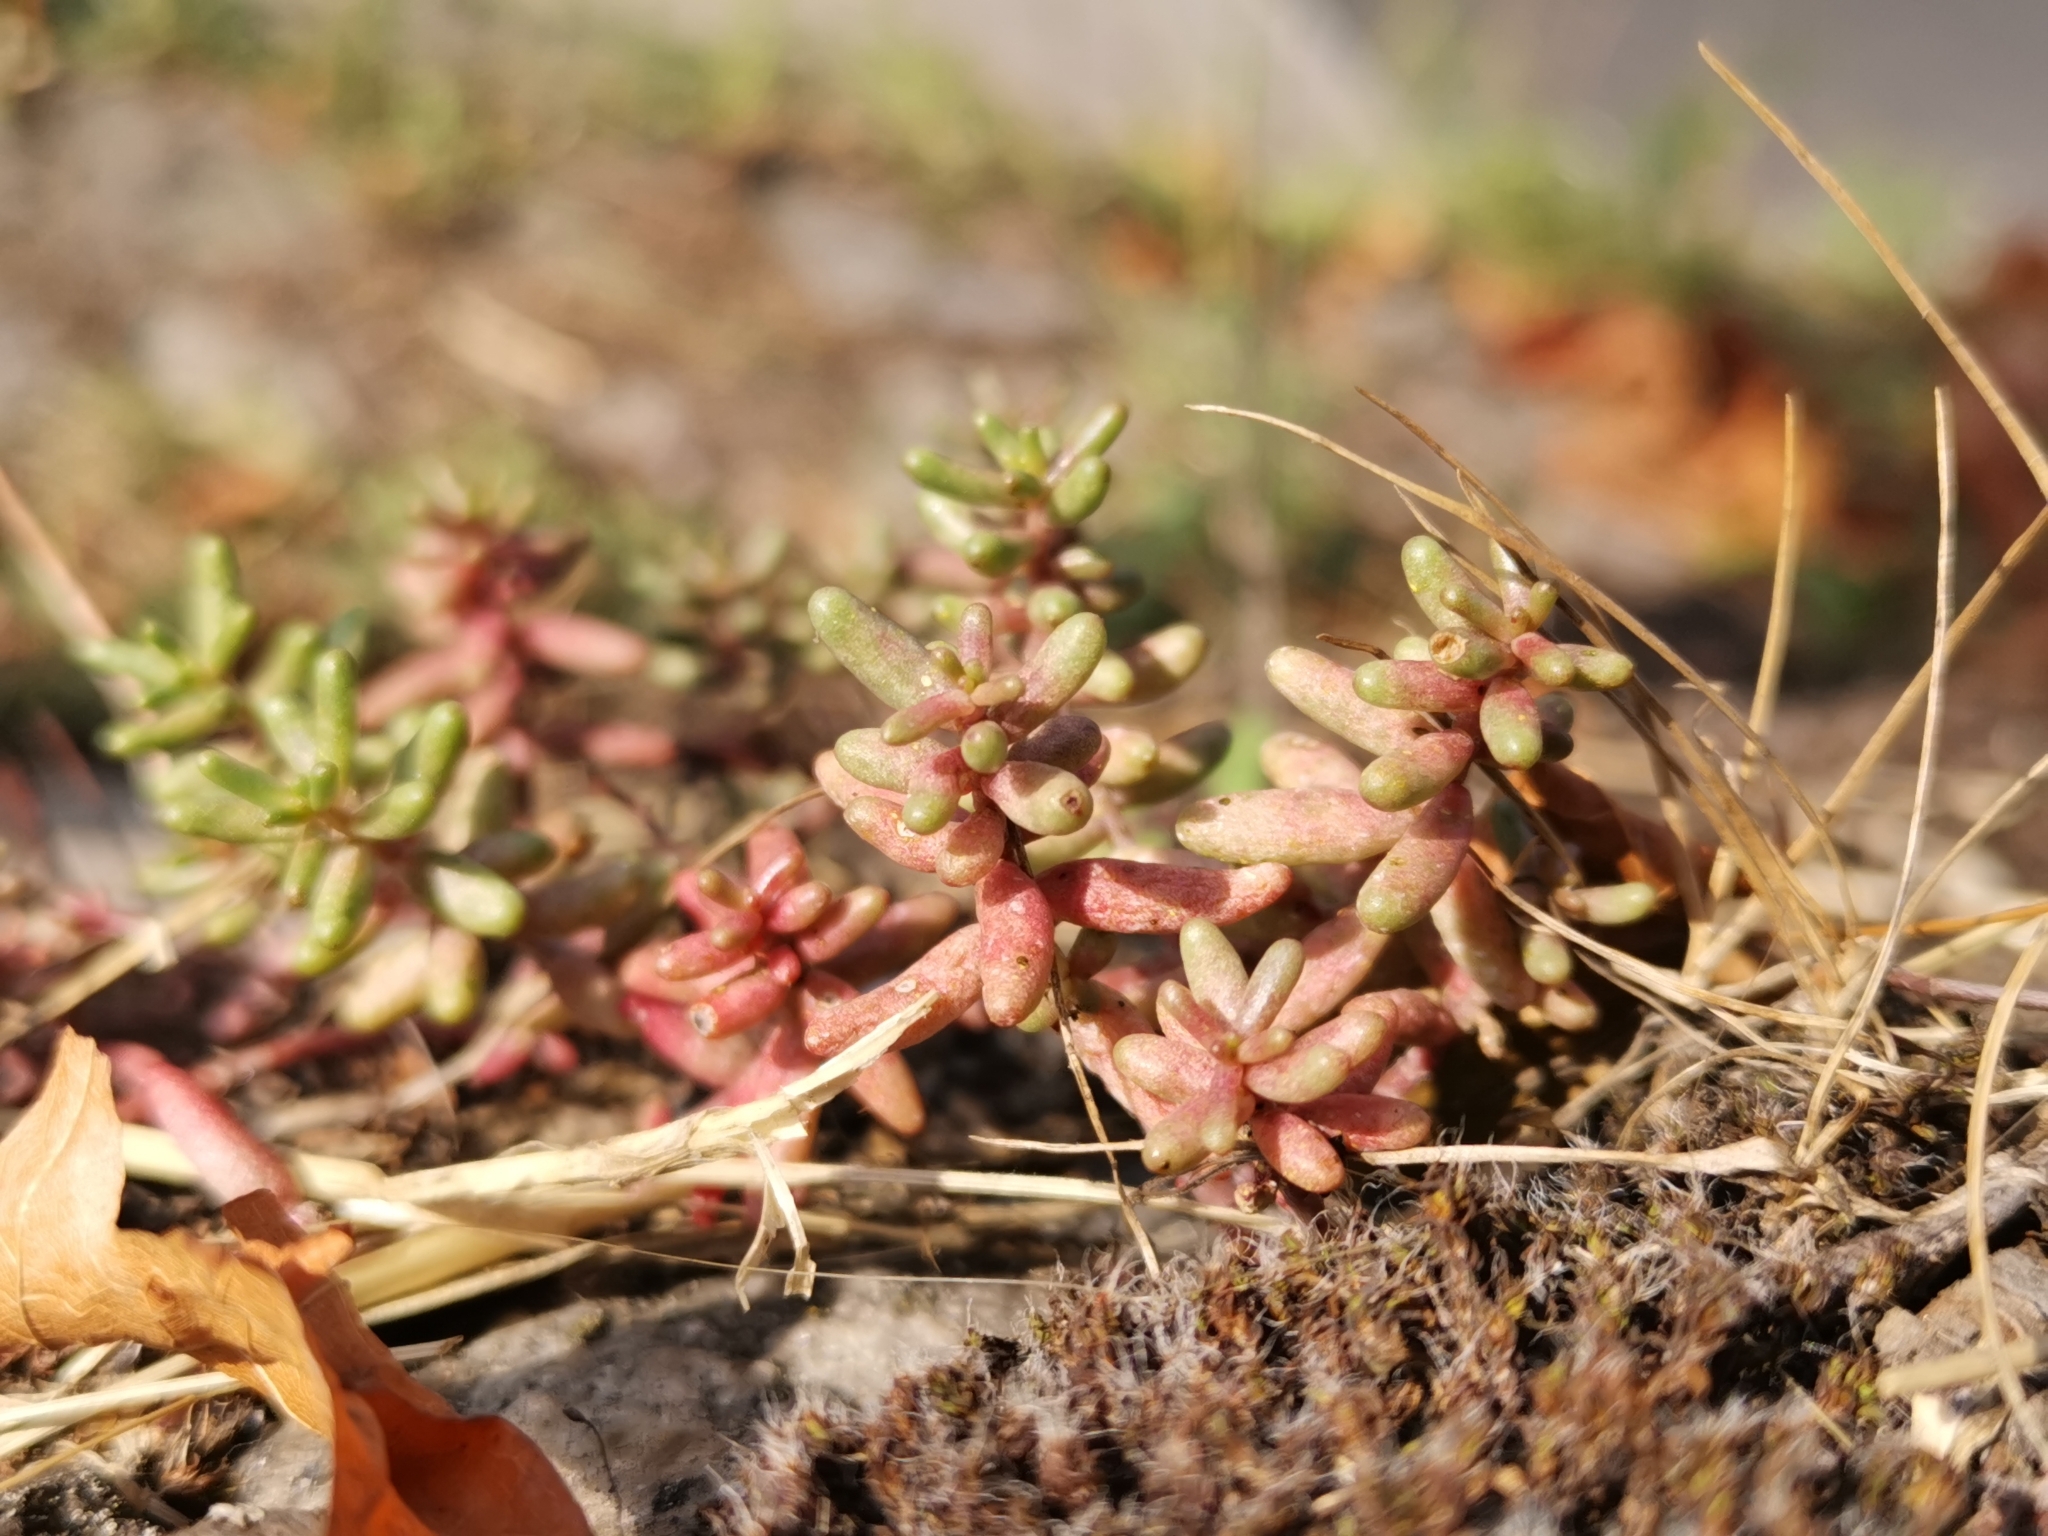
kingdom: Plantae
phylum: Tracheophyta
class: Magnoliopsida
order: Saxifragales
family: Crassulaceae
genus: Sedum
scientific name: Sedum album
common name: White stonecrop
